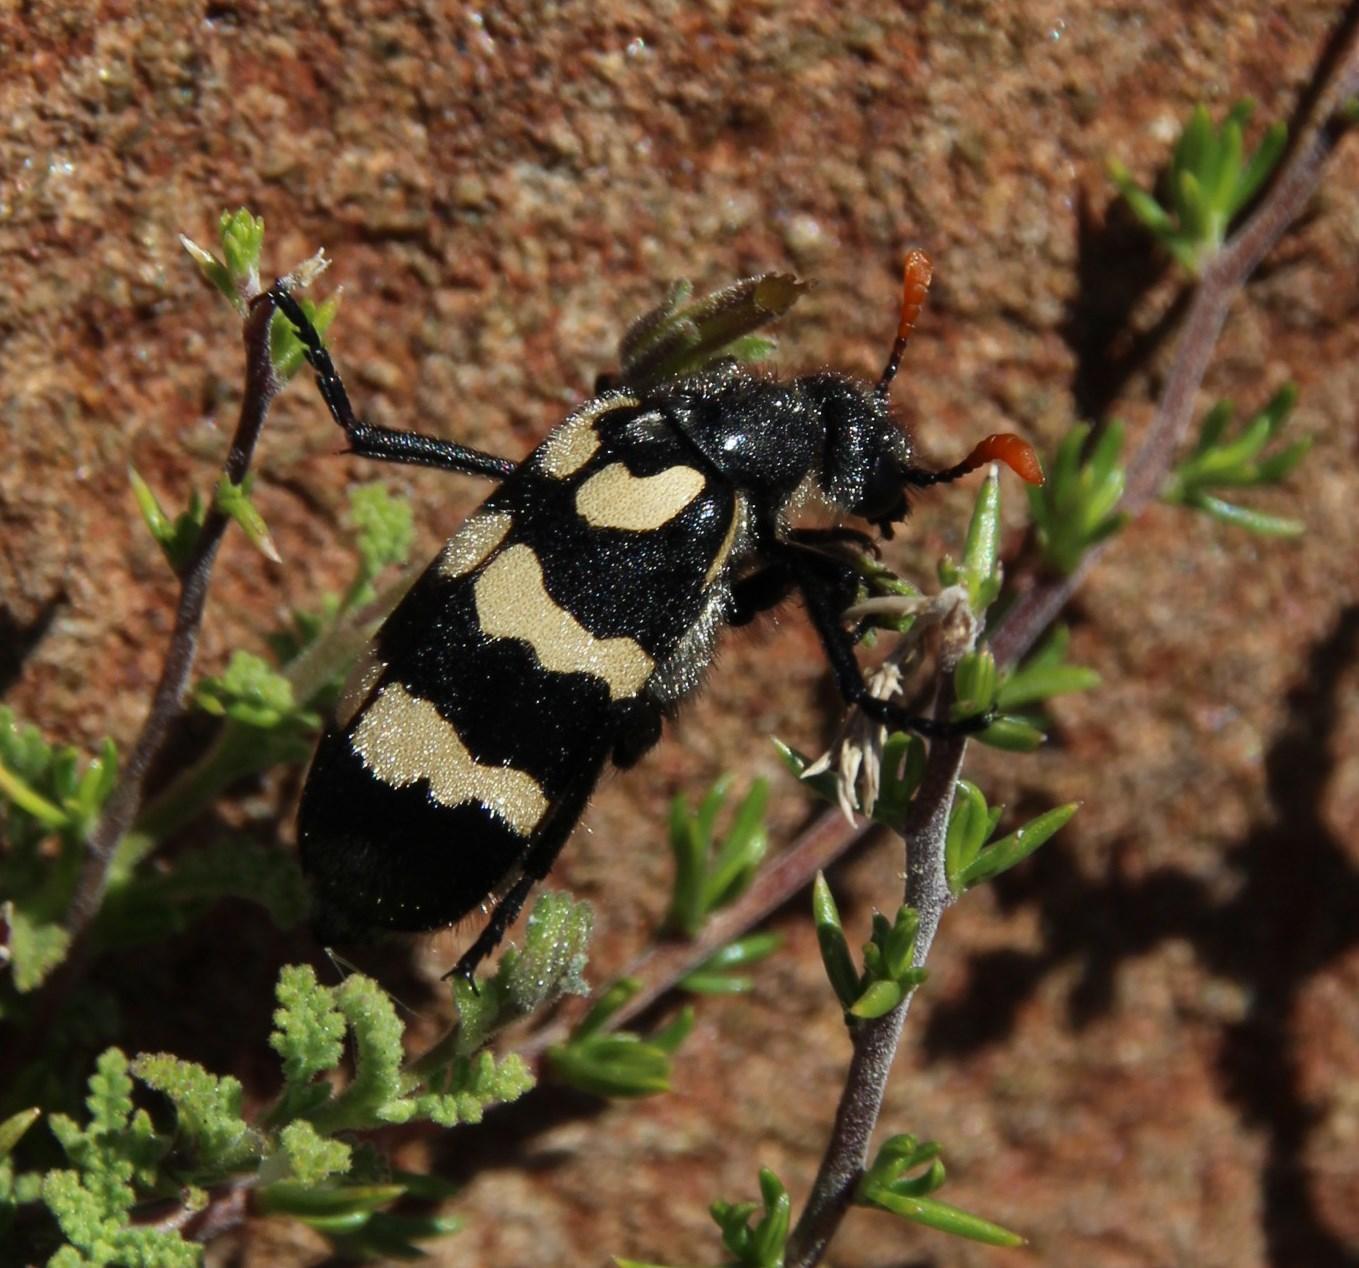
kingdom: Animalia
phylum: Arthropoda
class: Insecta
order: Coleoptera
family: Meloidae
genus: Meloe
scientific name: Meloe lunata
